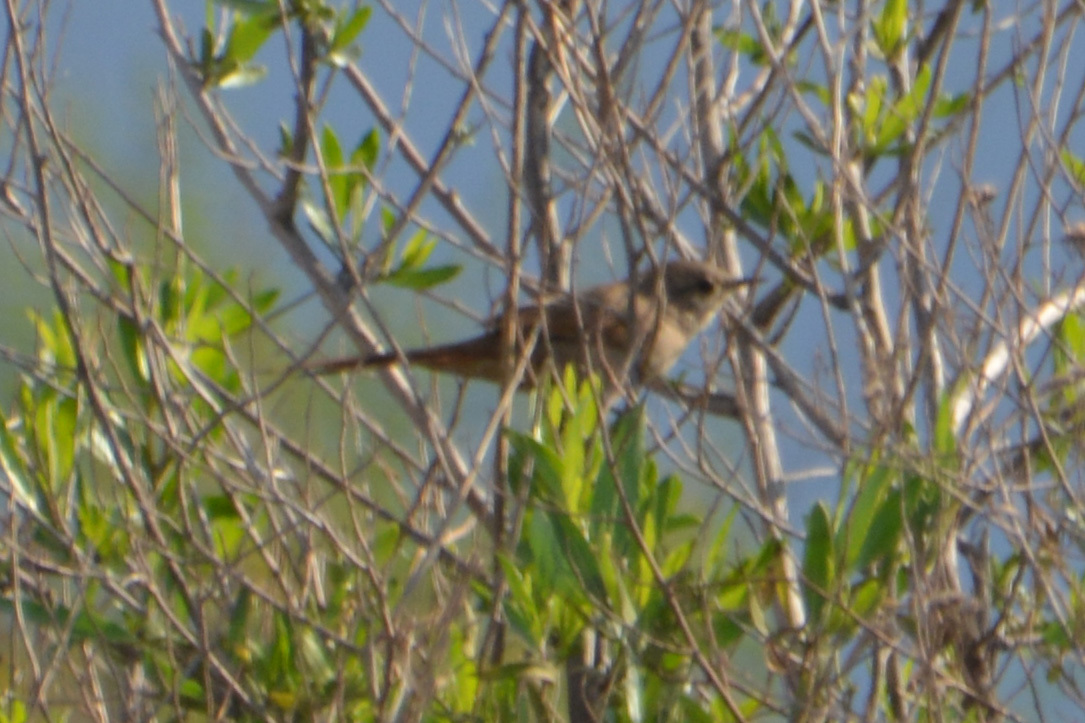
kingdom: Animalia
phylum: Chordata
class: Aves
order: Passeriformes
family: Furnariidae
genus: Asthenes
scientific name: Asthenes pyrrholeuca
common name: Sharp-billed canastero
